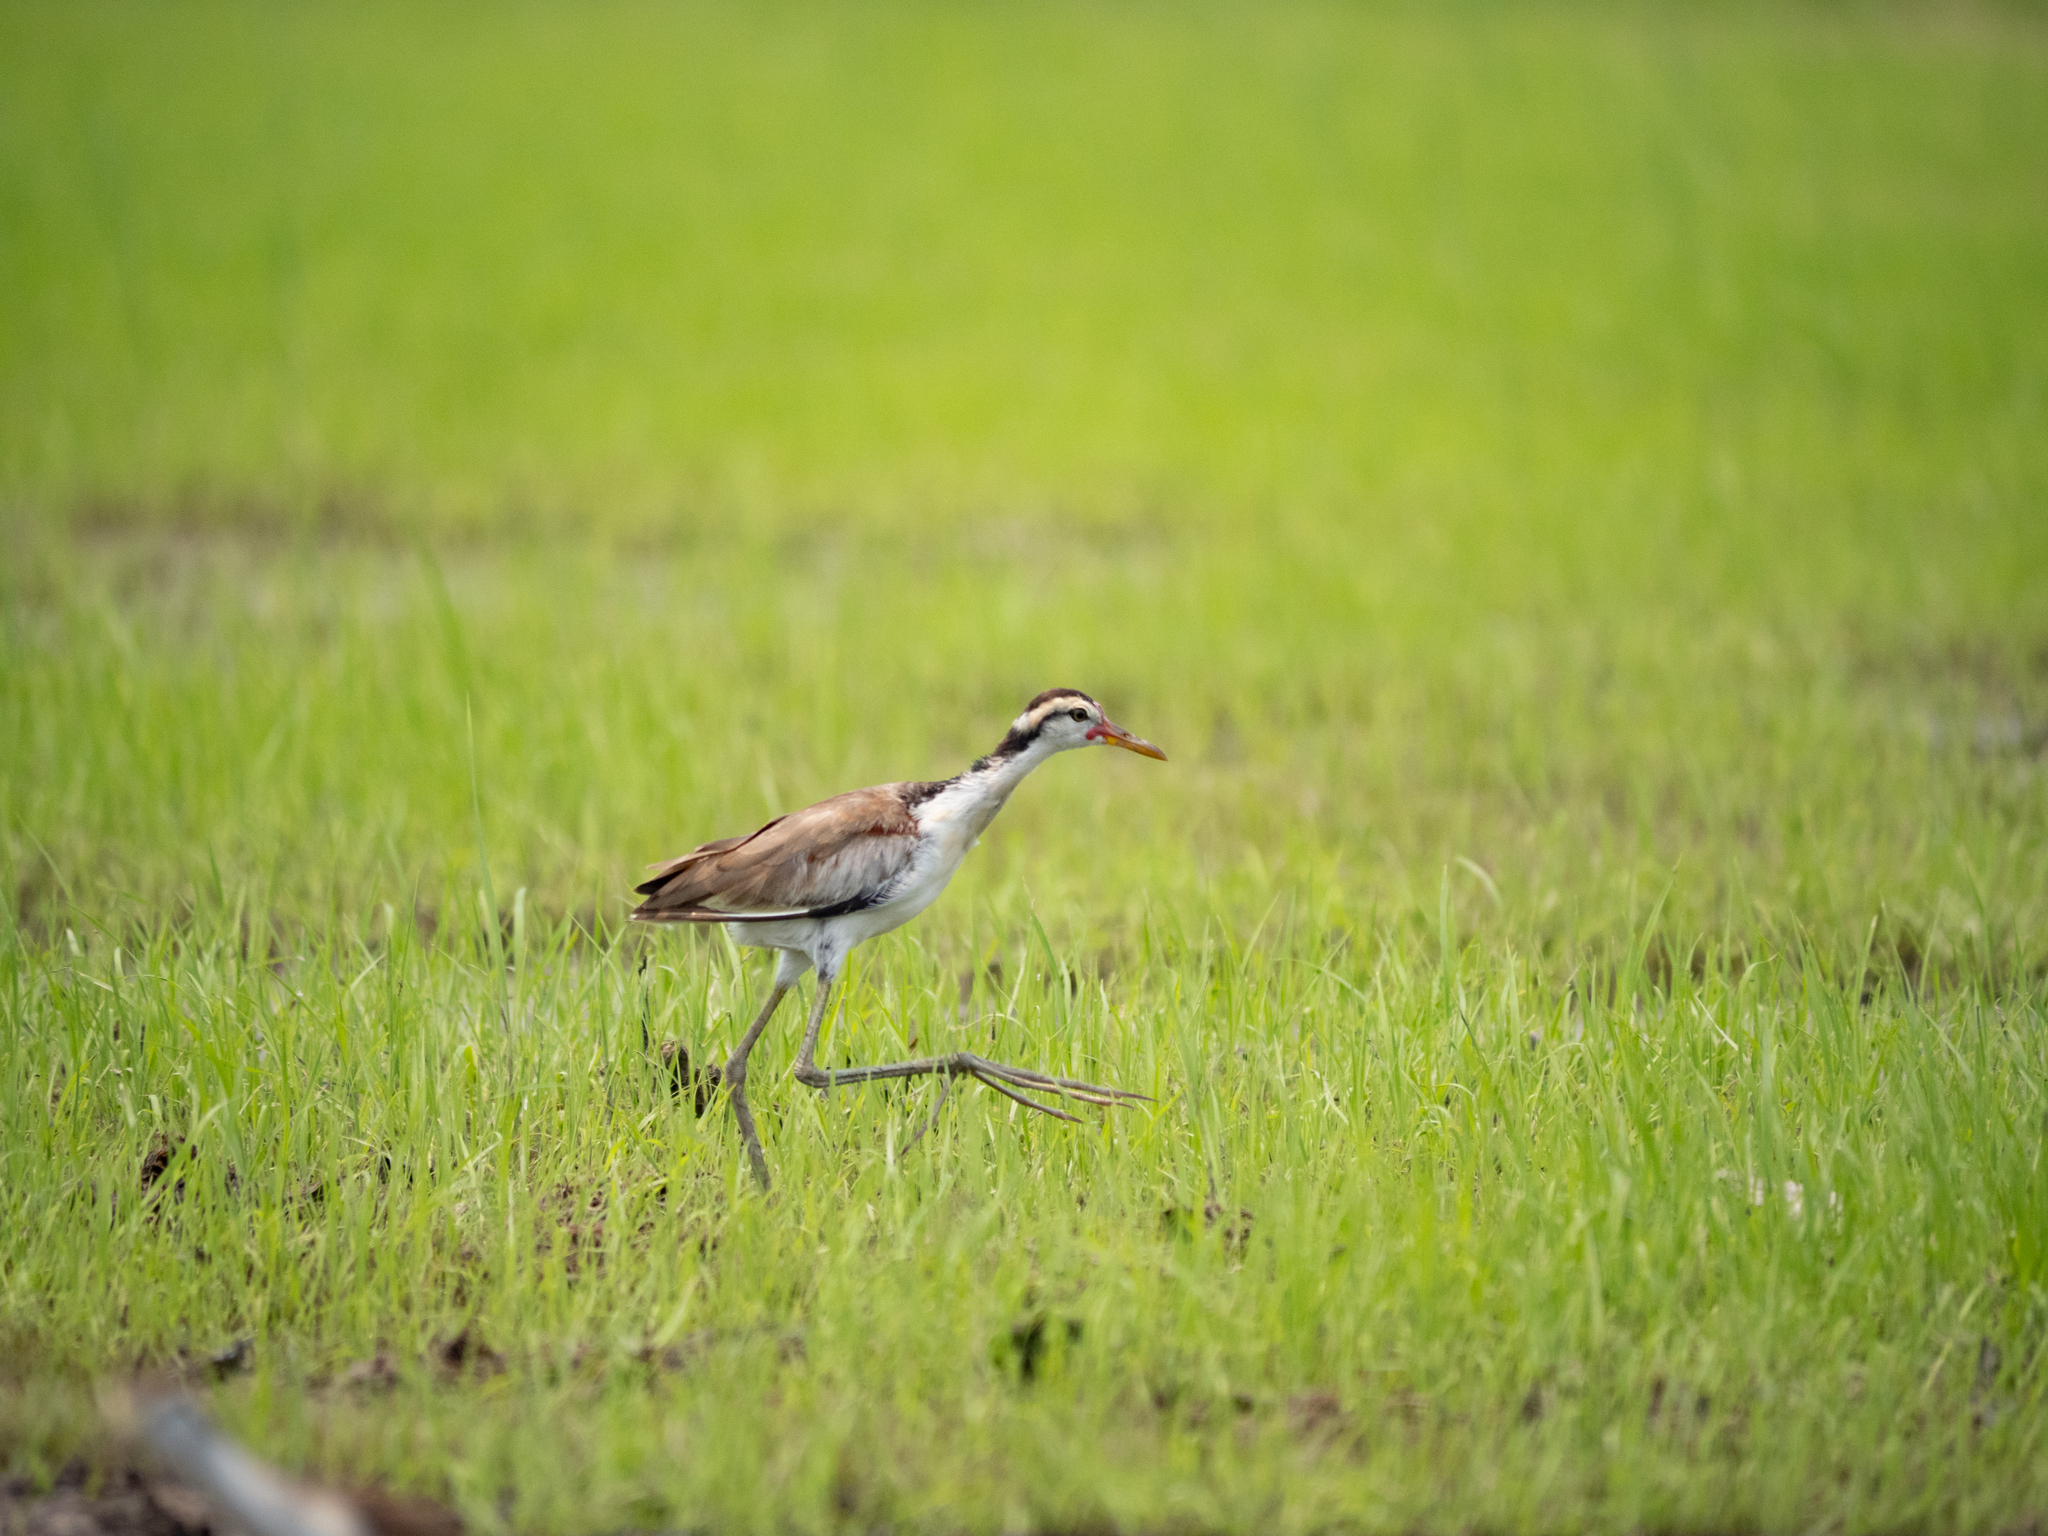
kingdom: Animalia
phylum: Chordata
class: Aves
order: Charadriiformes
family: Jacanidae
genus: Jacana
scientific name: Jacana jacana
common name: Wattled jacana
